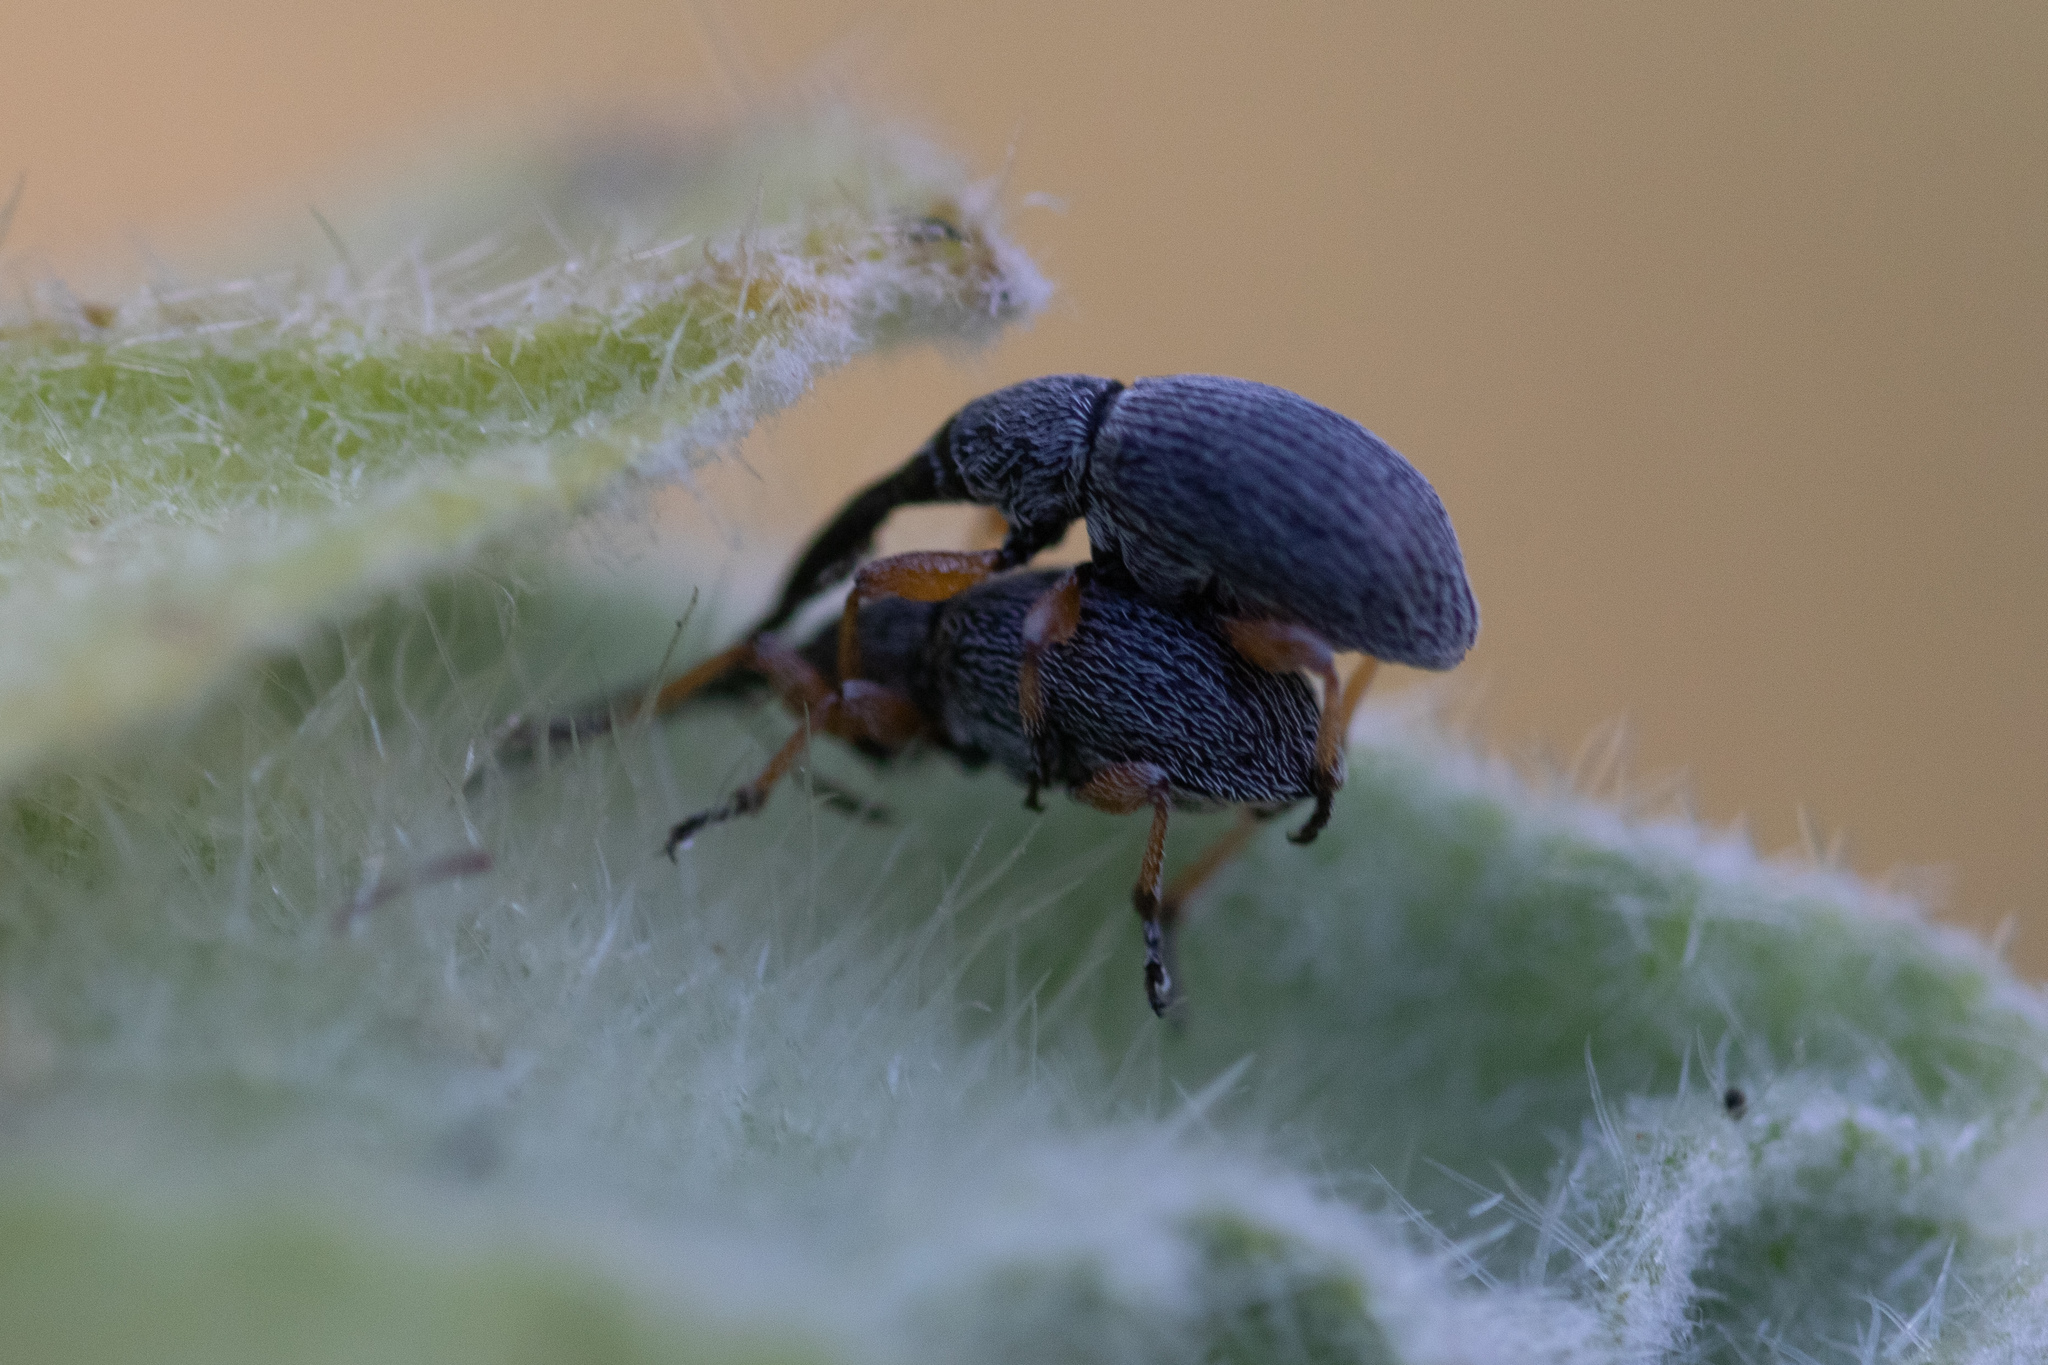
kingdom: Animalia
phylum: Arthropoda
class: Insecta
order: Coleoptera
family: Brentidae
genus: Rhopalapion
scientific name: Rhopalapion longirostre
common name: Hollyhock weevil
